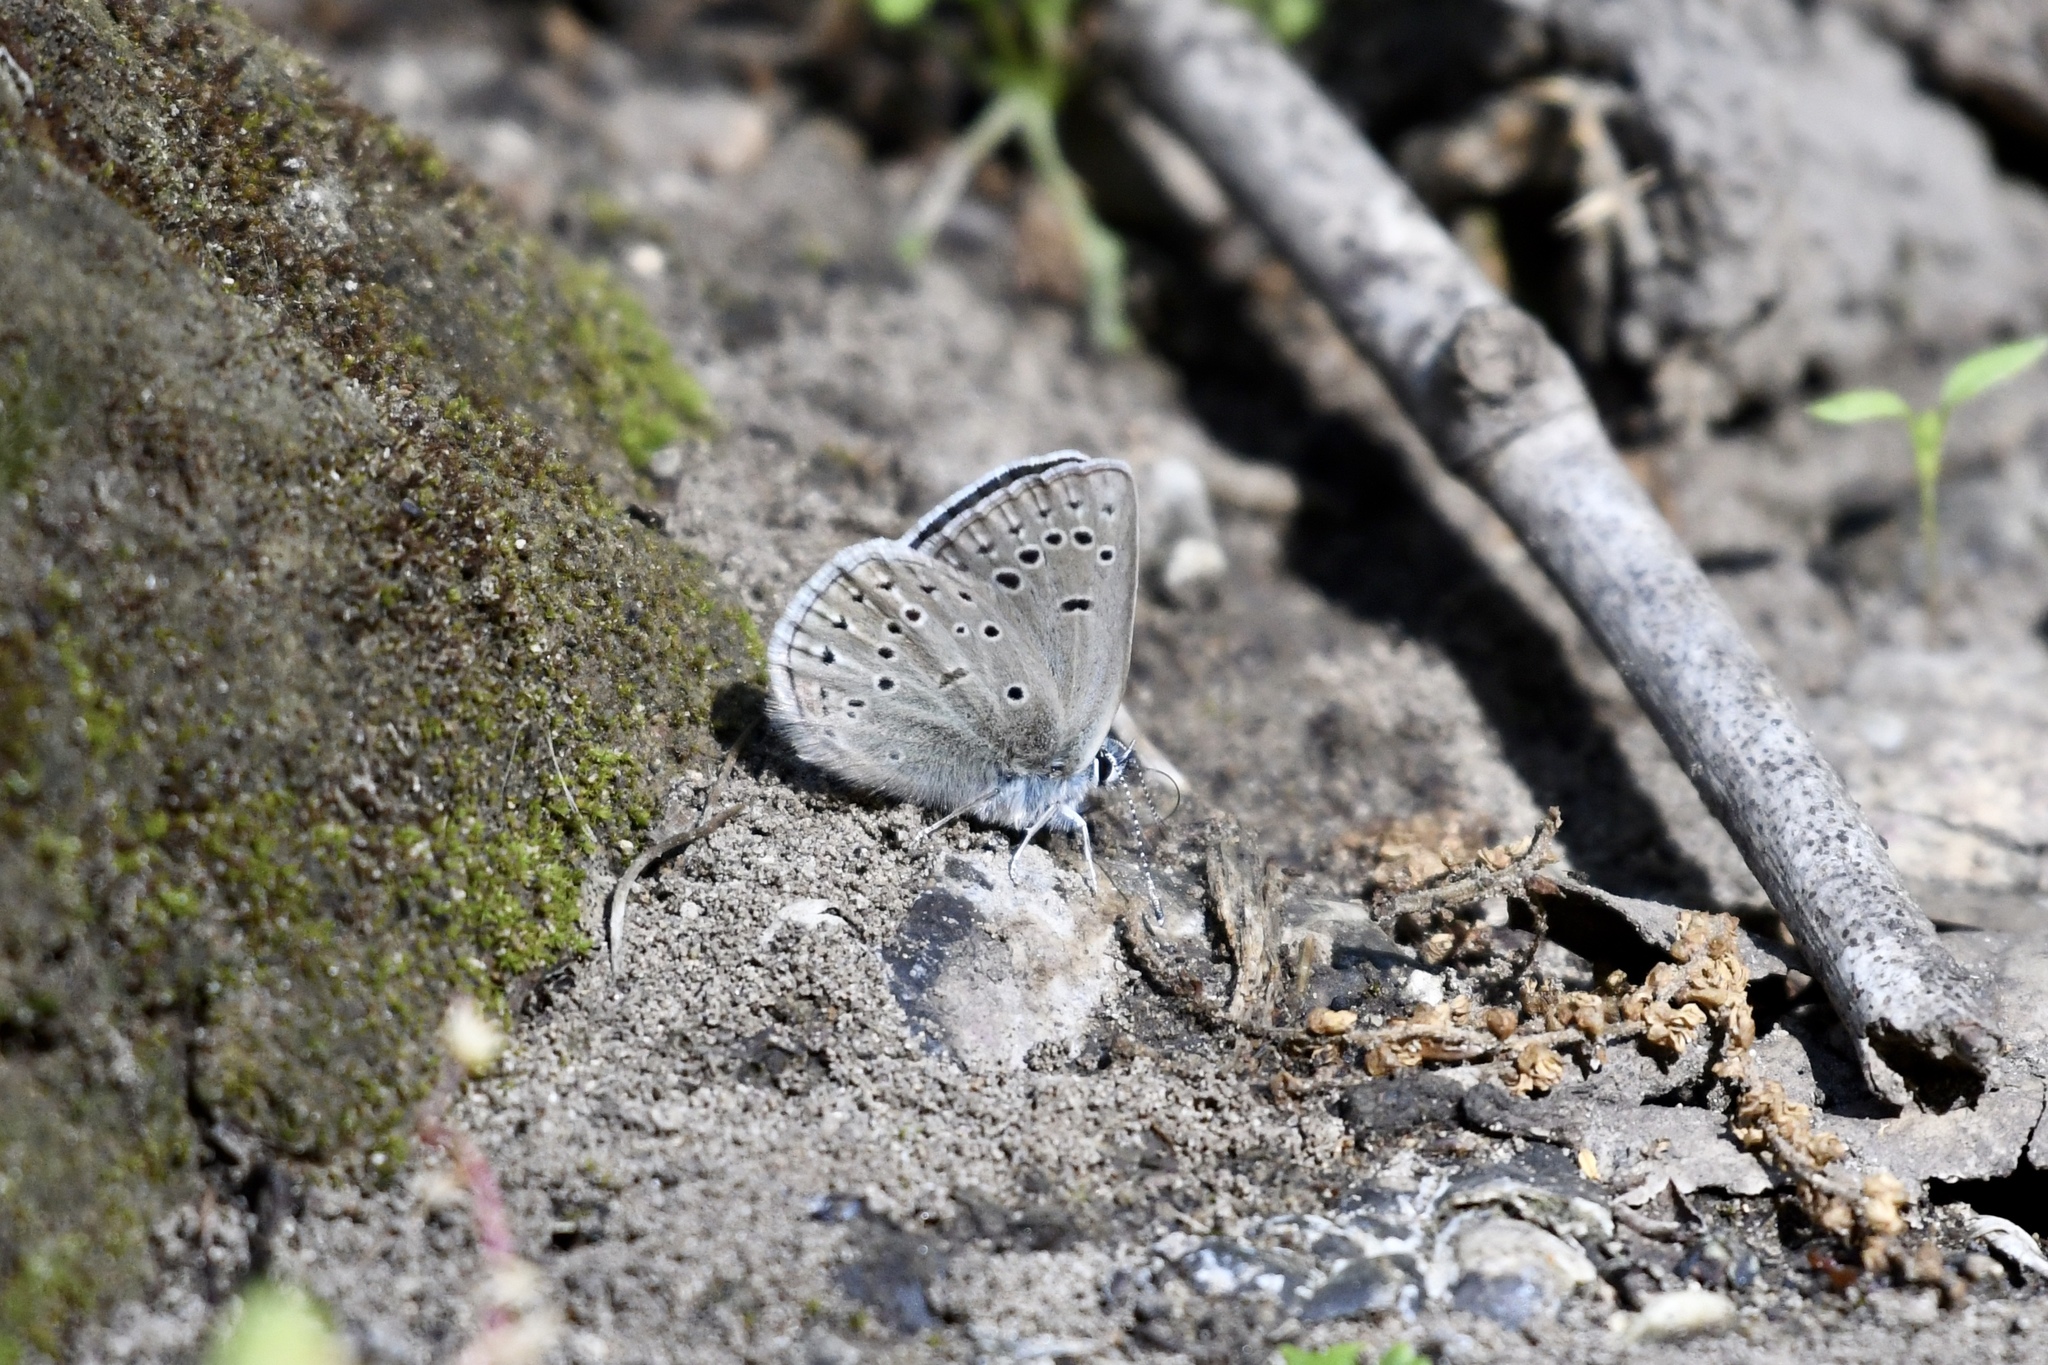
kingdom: Animalia
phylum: Arthropoda
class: Insecta
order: Lepidoptera
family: Lycaenidae
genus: Icaricia
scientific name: Icaricia icarioides
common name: Boisduval's blue
